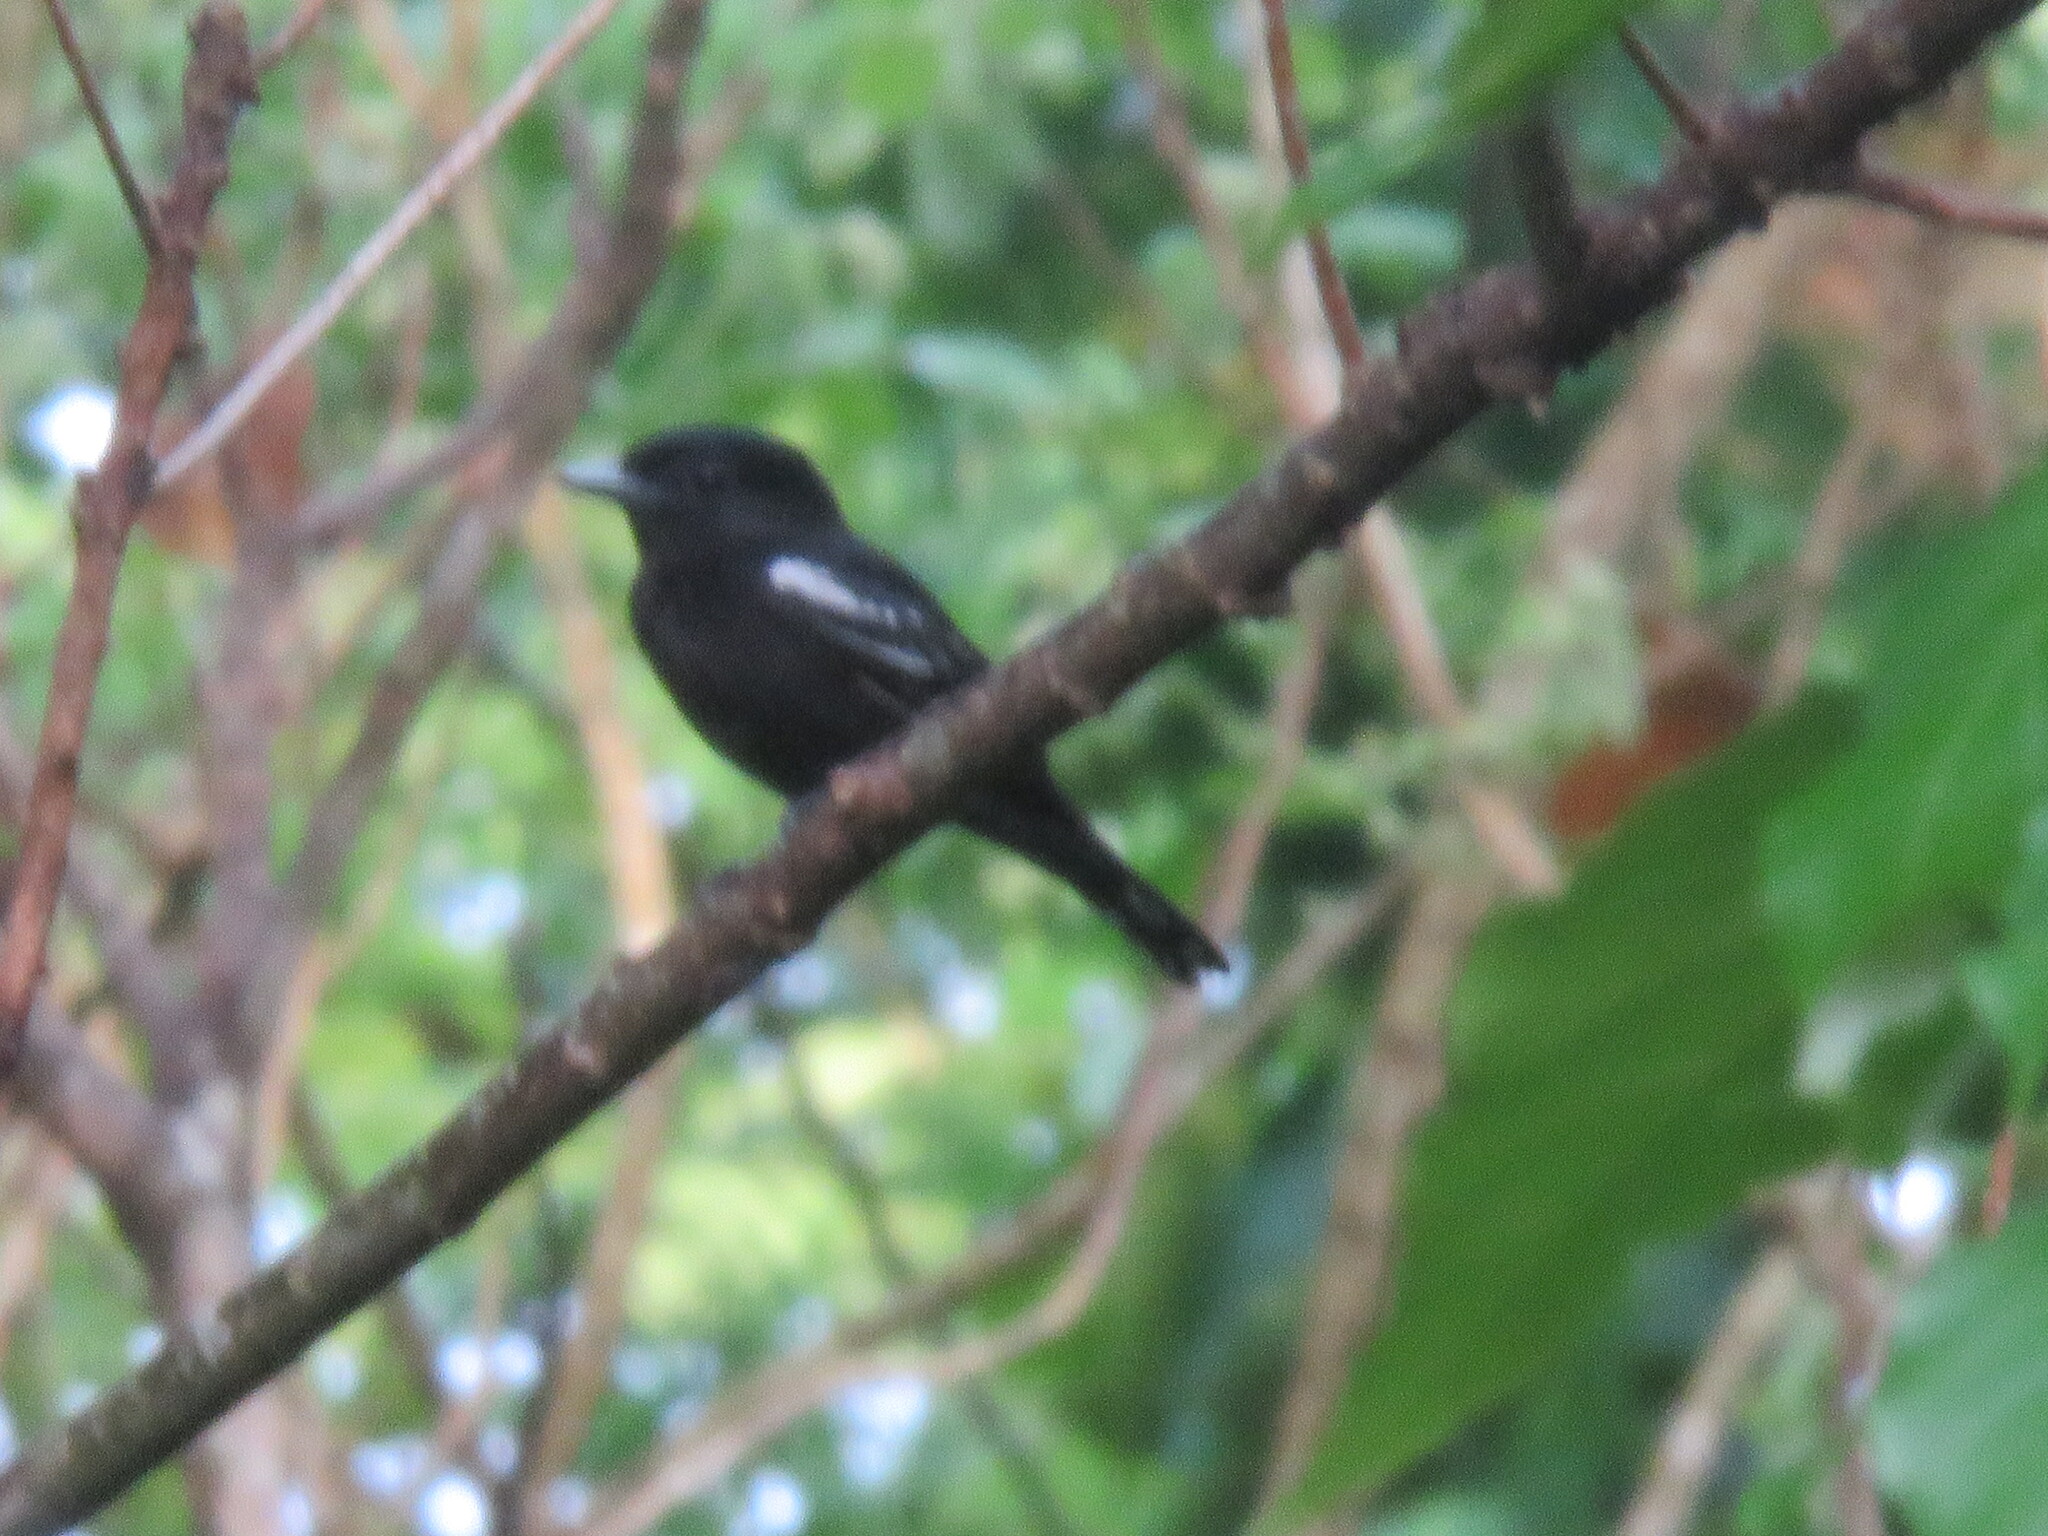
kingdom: Animalia
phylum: Chordata
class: Aves
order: Passeriformes
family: Cotingidae
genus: Pachyramphus
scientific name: Pachyramphus polychopterus
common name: White-winged becard
